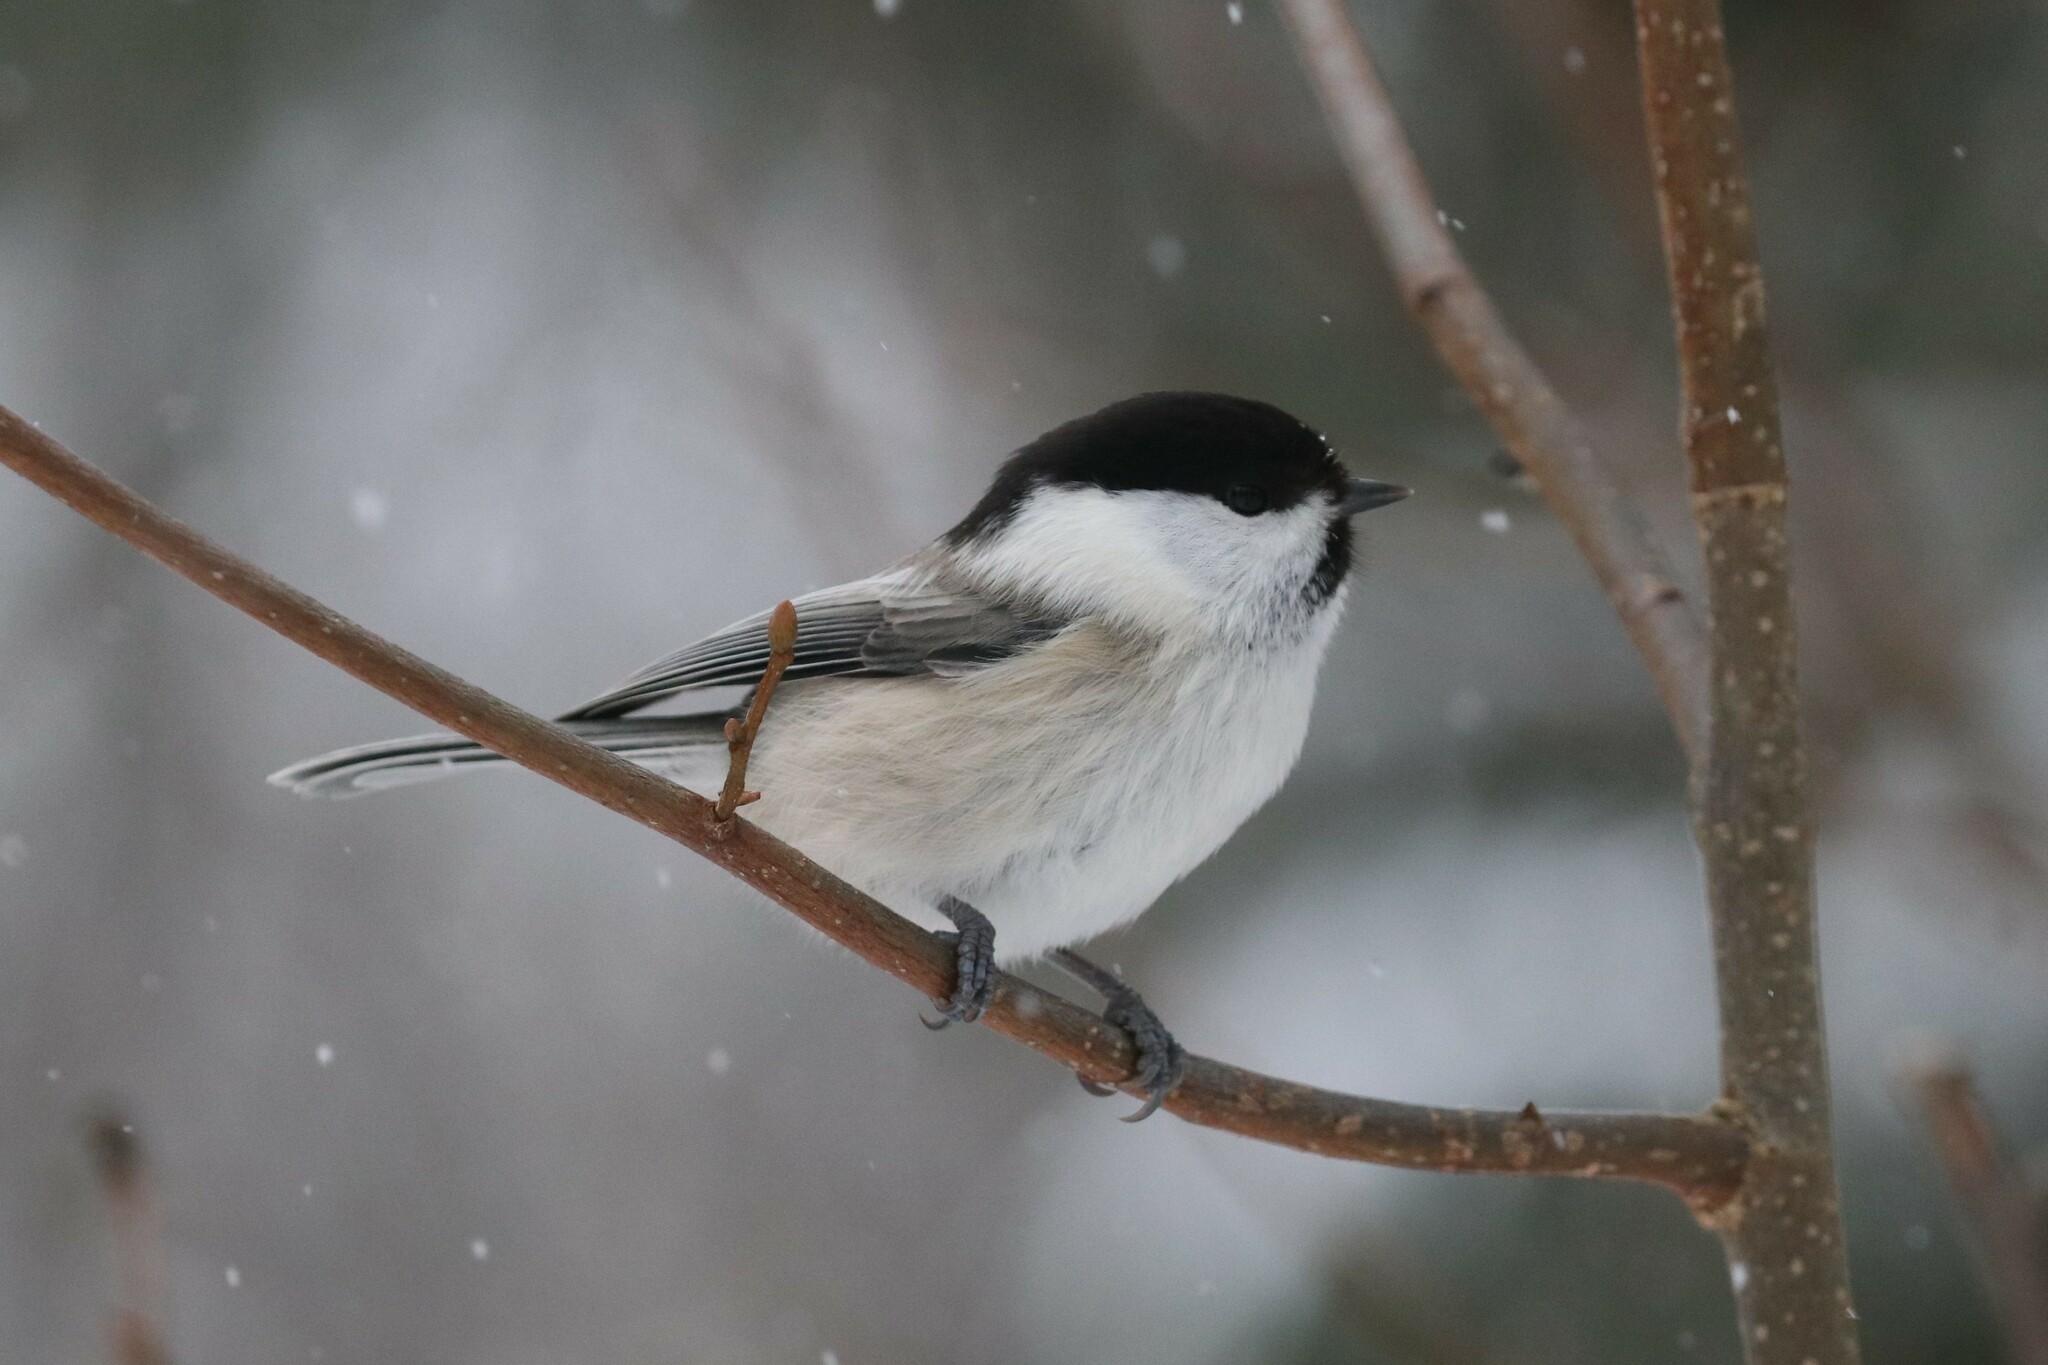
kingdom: Animalia
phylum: Chordata
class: Aves
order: Passeriformes
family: Paridae
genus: Poecile
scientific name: Poecile montanus
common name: Willow tit
